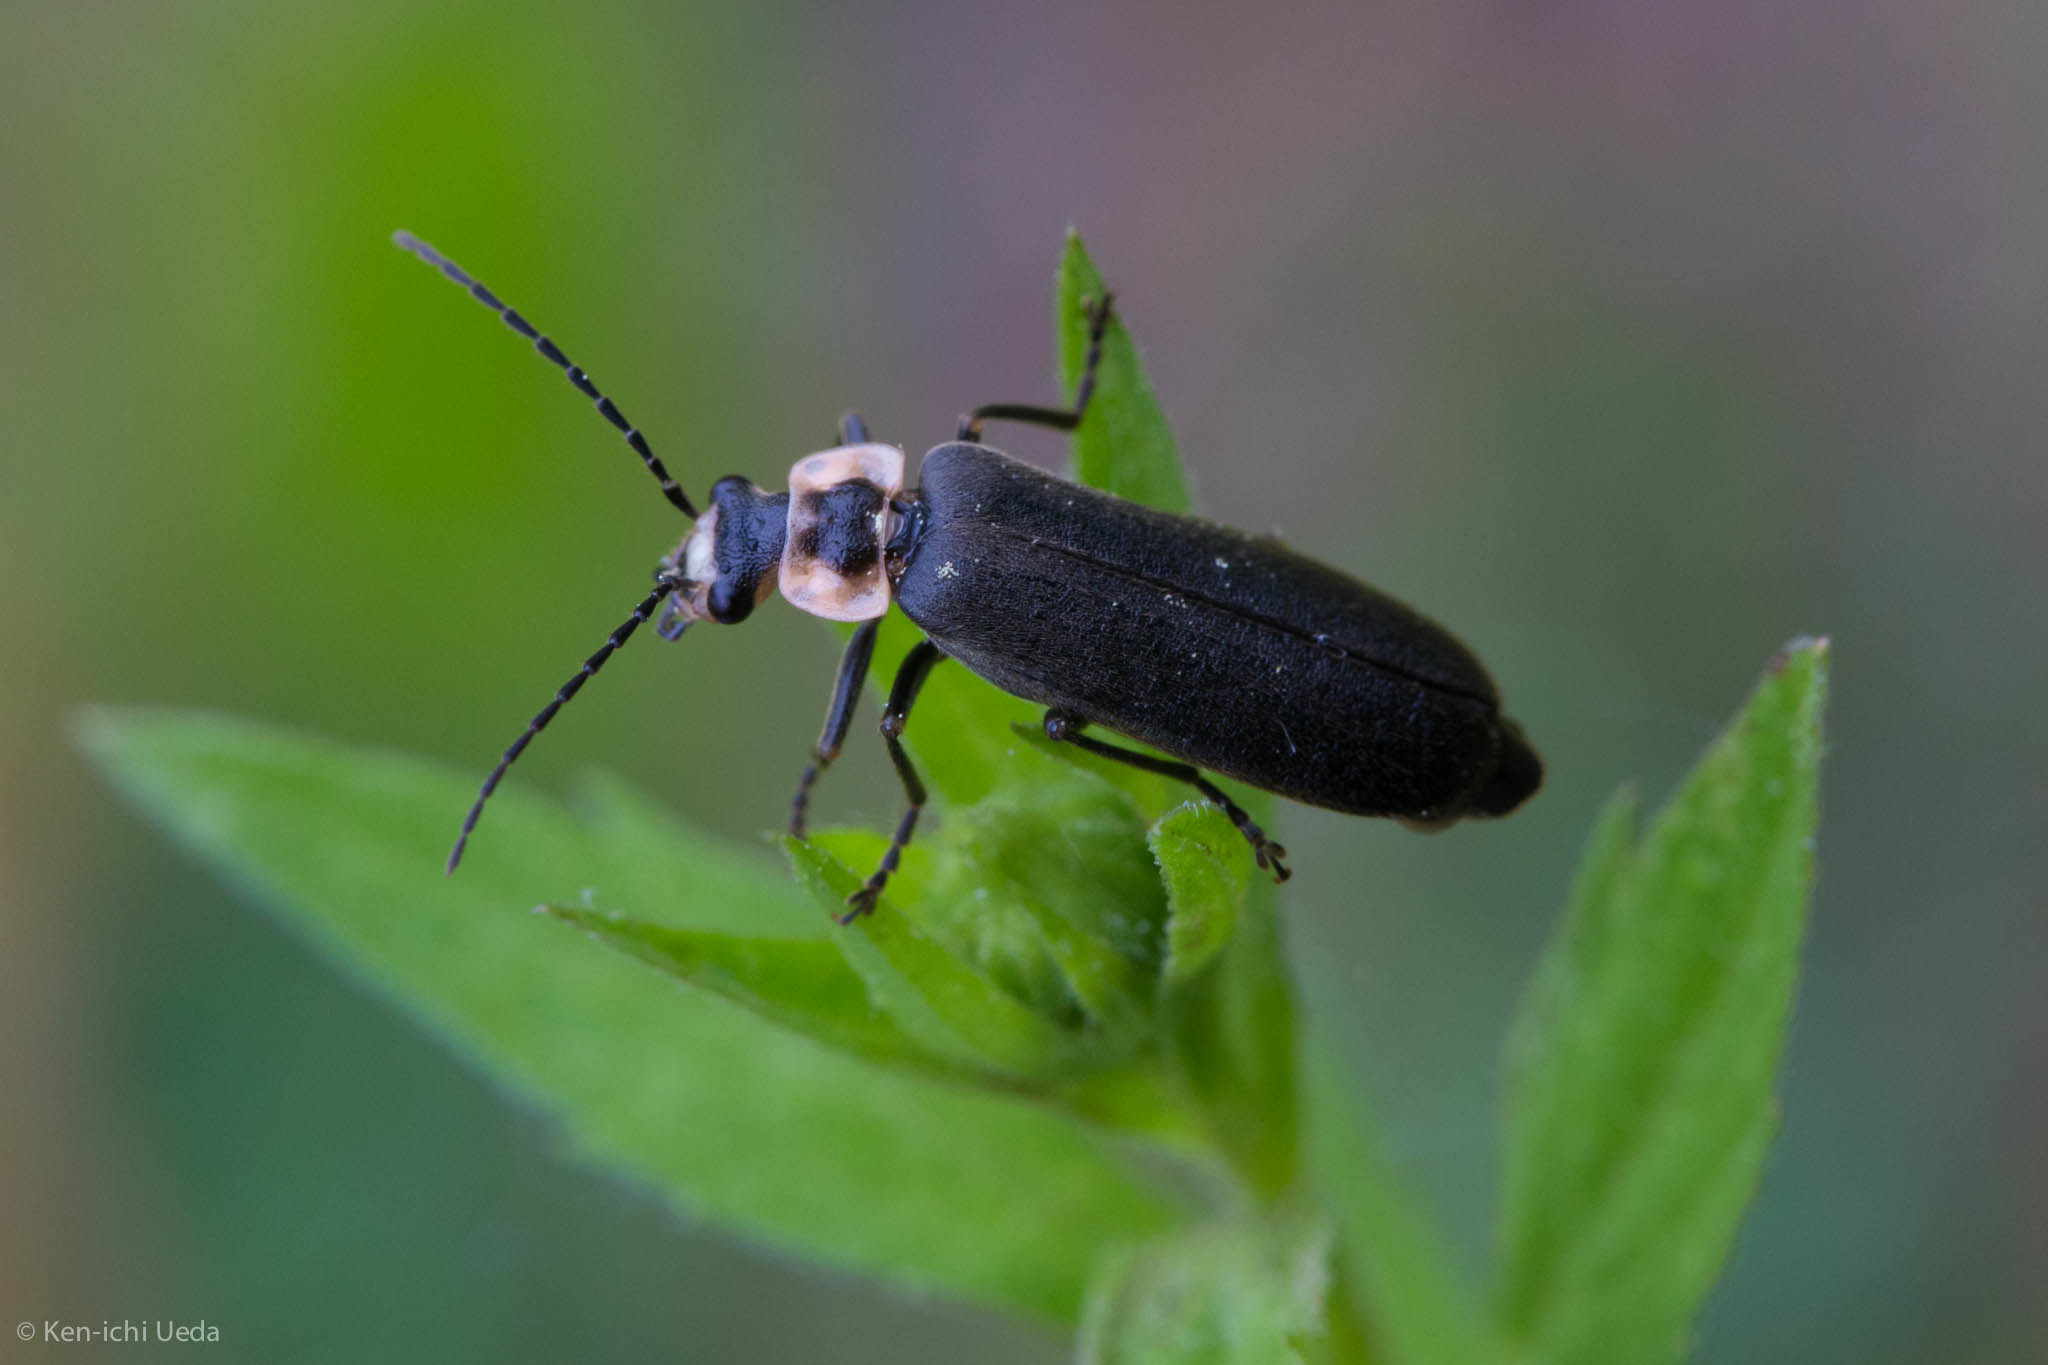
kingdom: Animalia
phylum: Arthropoda
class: Insecta
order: Coleoptera
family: Cantharidae
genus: Podabrus
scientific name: Podabrus brevicollis
